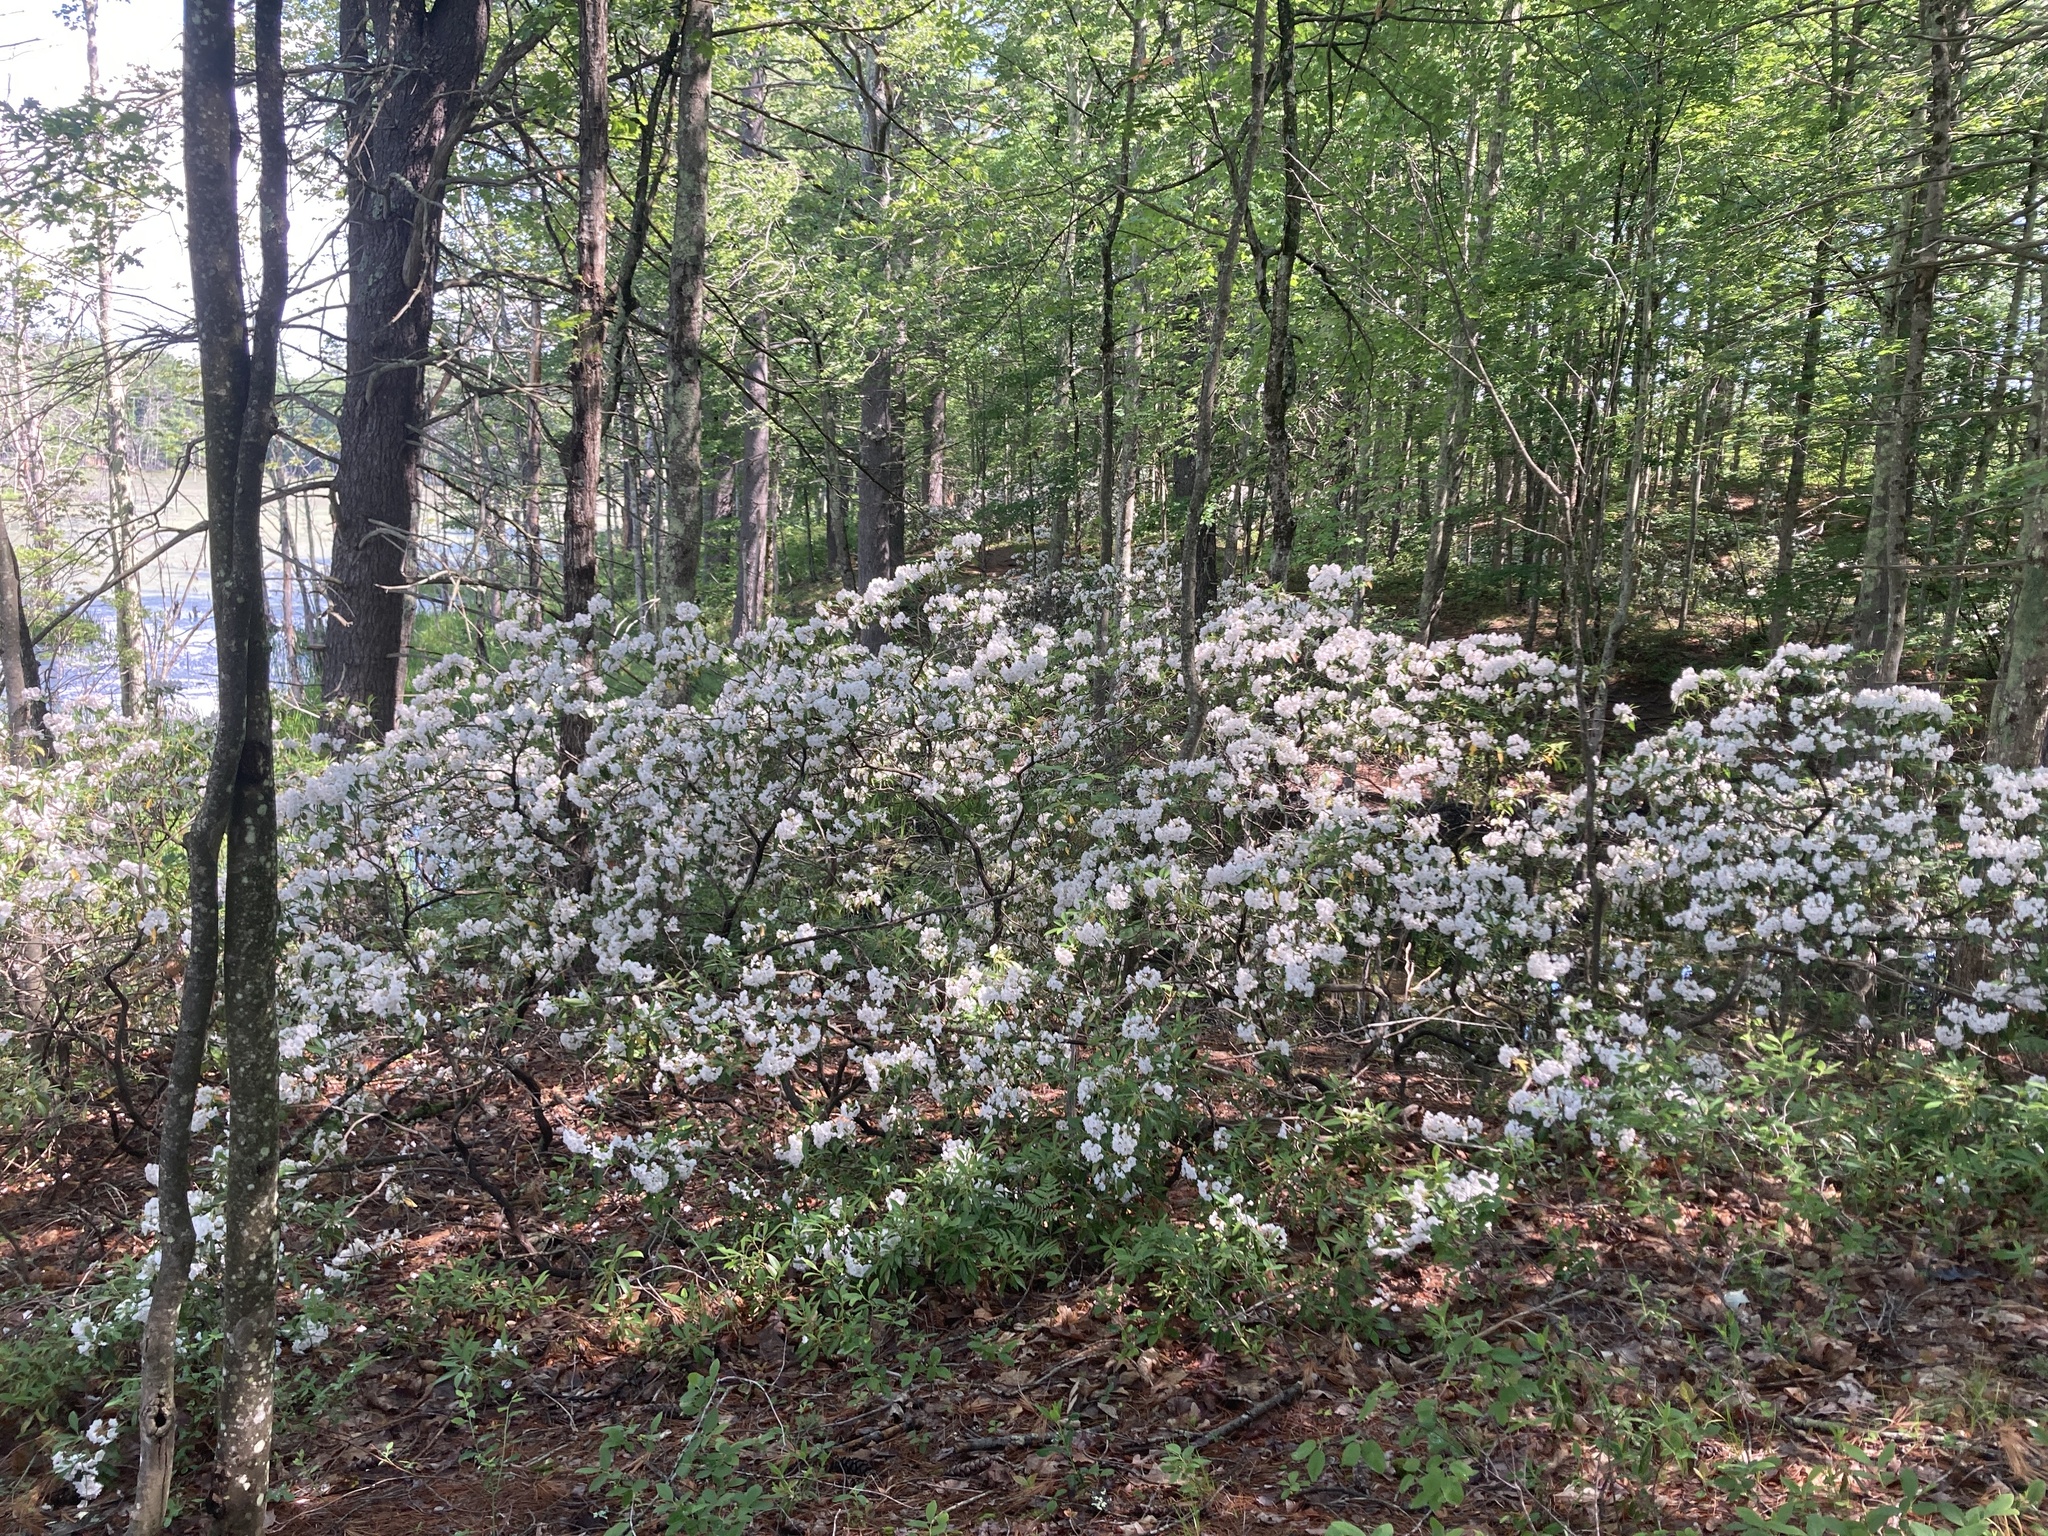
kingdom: Plantae
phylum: Tracheophyta
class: Magnoliopsida
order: Ericales
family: Ericaceae
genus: Kalmia
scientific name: Kalmia latifolia
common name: Mountain-laurel
